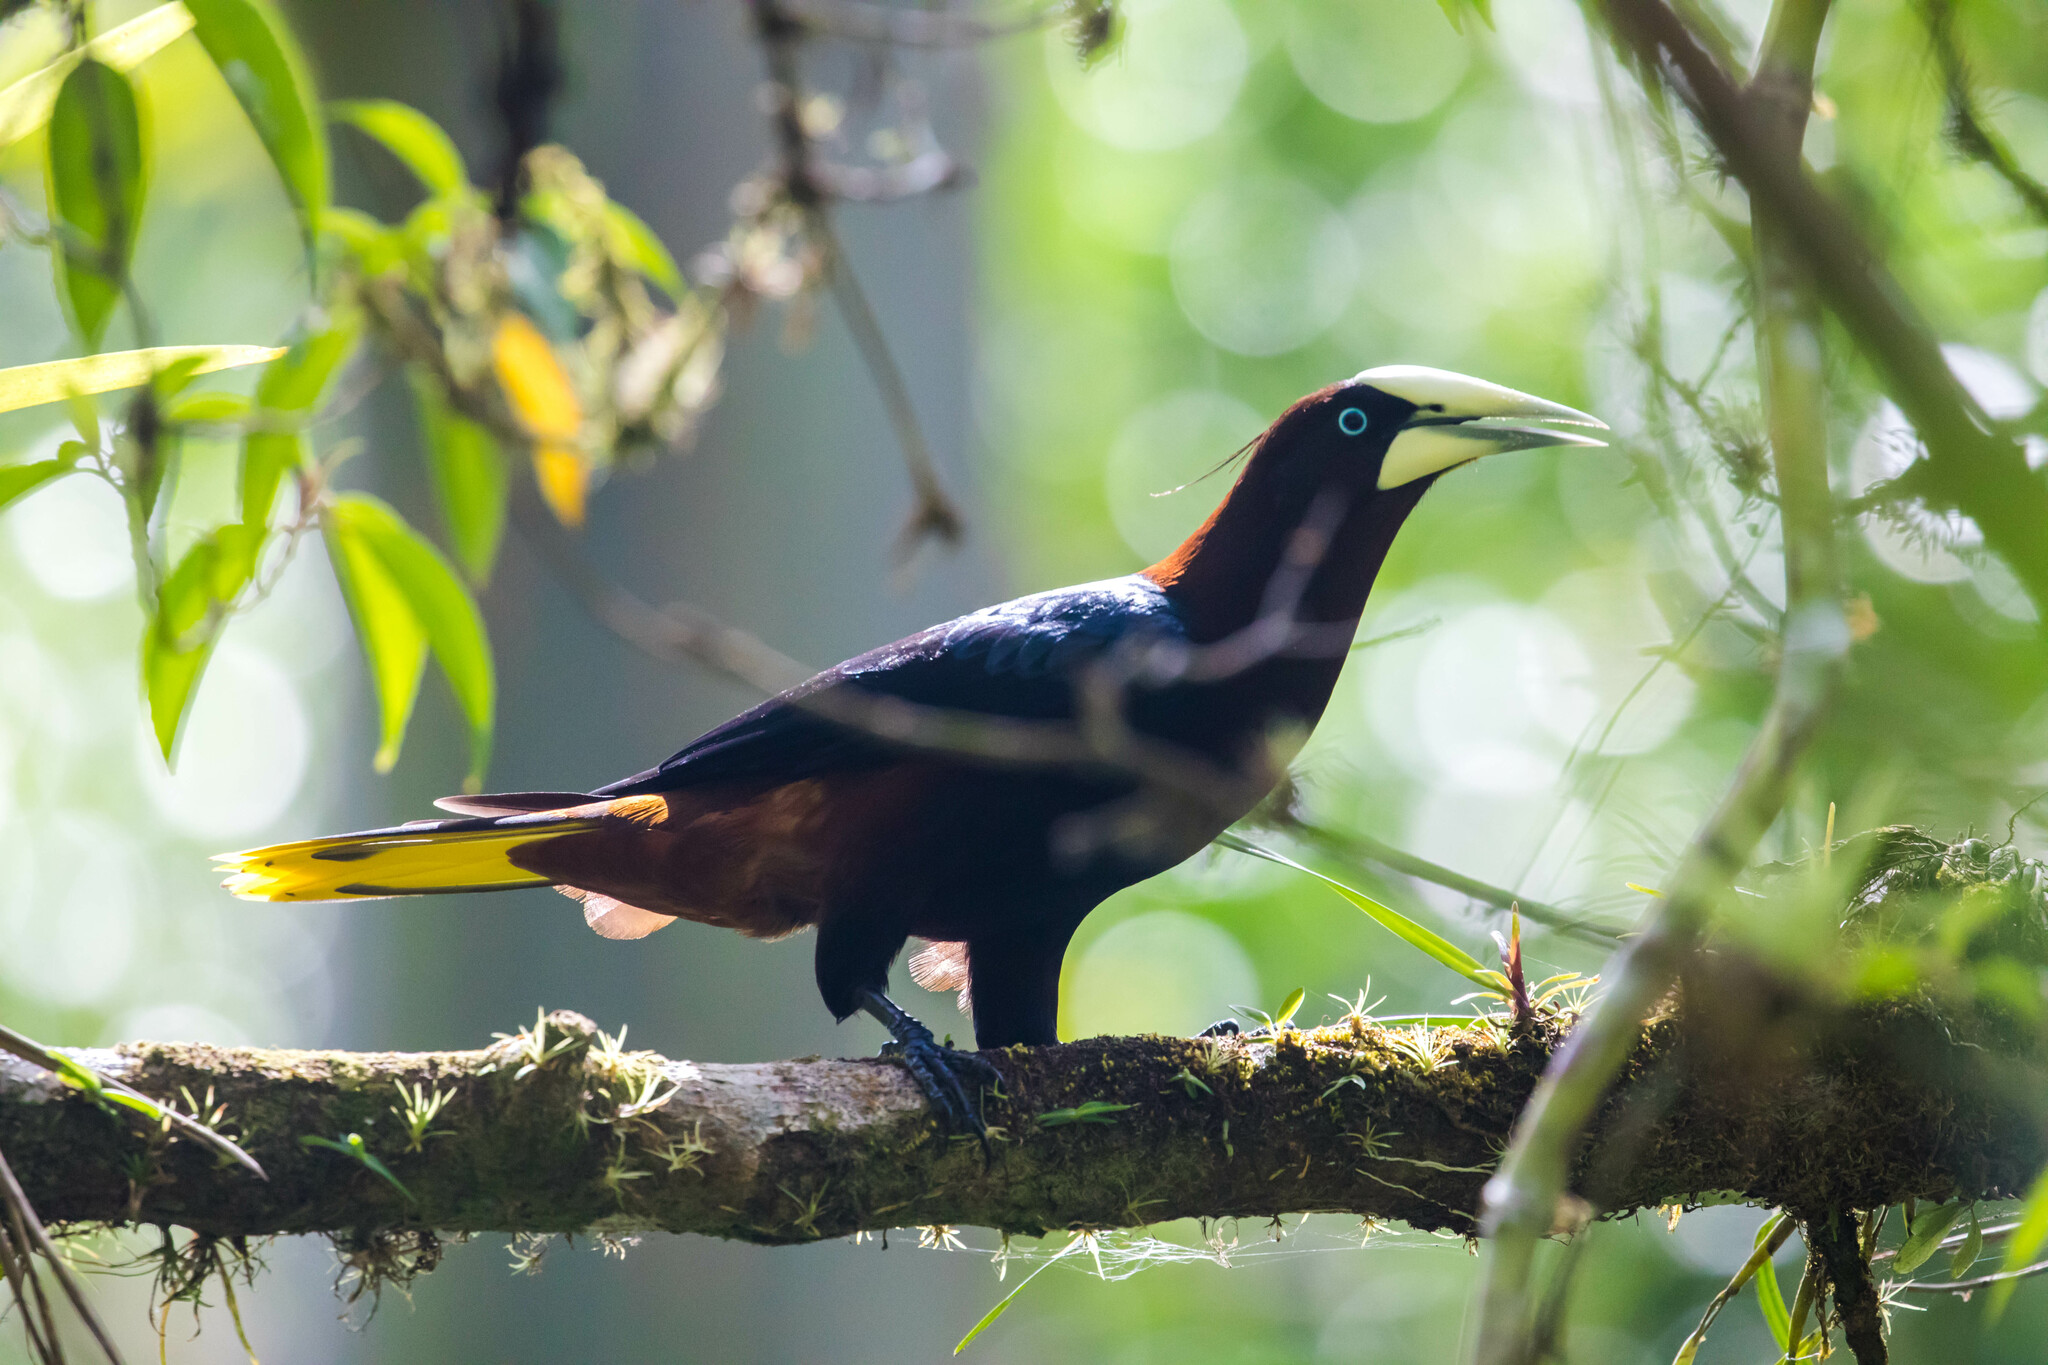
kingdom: Animalia
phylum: Chordata
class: Aves
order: Passeriformes
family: Icteridae
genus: Psarocolius
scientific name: Psarocolius wagleri
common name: Chestnut-headed oropendola
